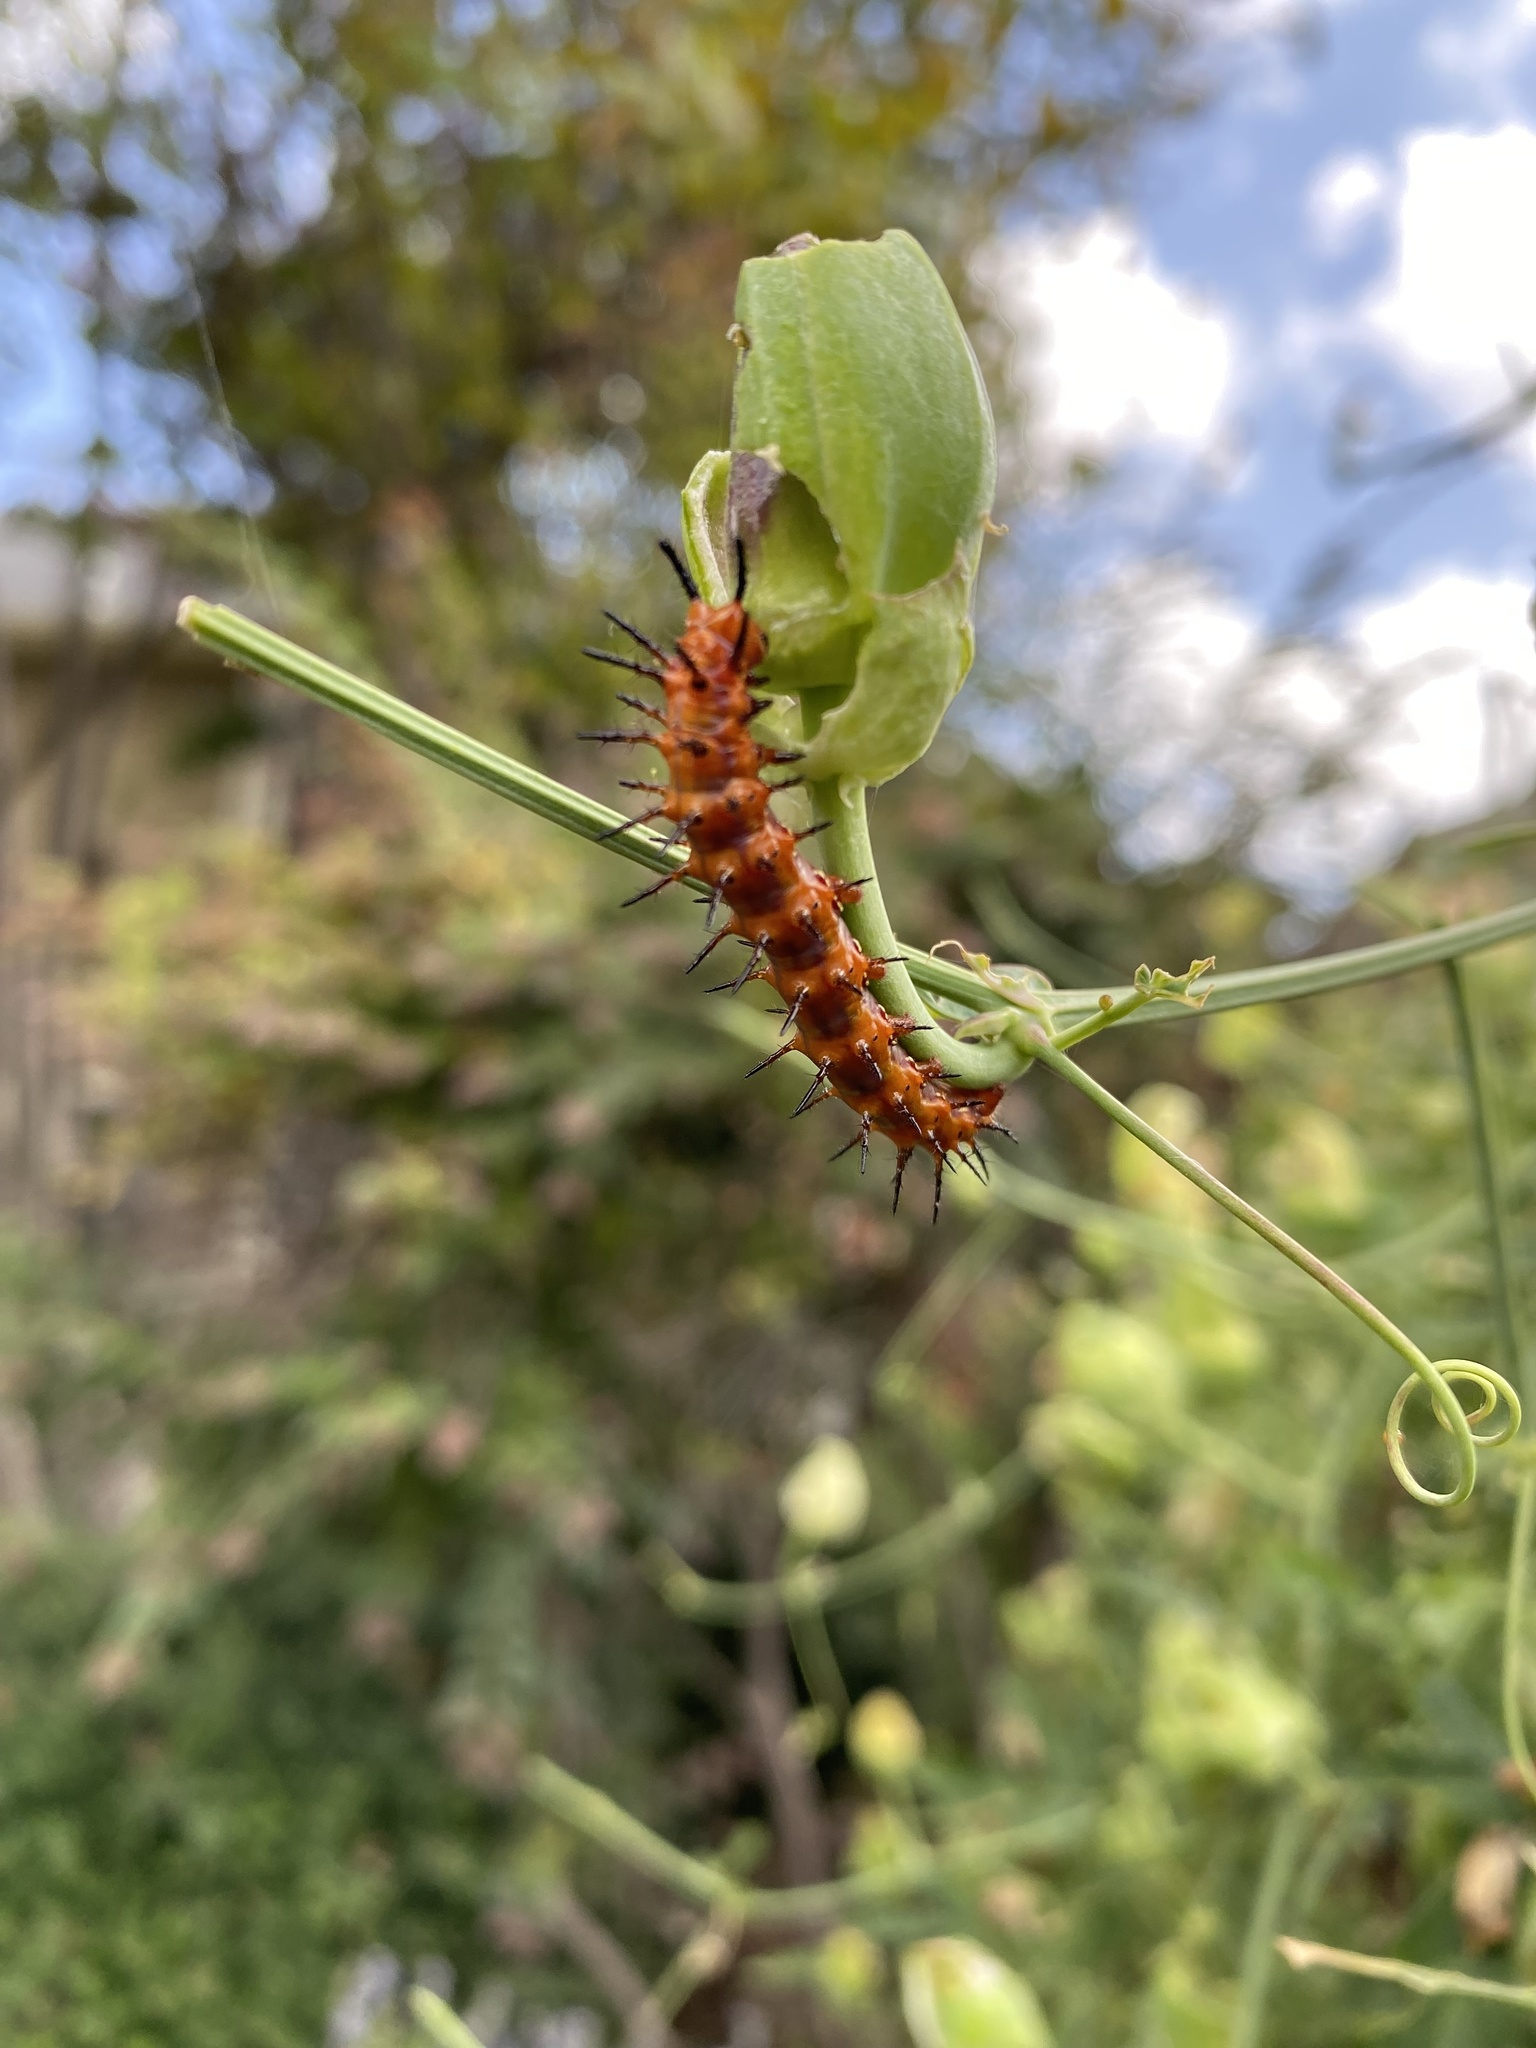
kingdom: Animalia
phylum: Arthropoda
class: Insecta
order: Lepidoptera
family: Nymphalidae
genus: Dione
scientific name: Dione vanillae
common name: Gulf fritillary
